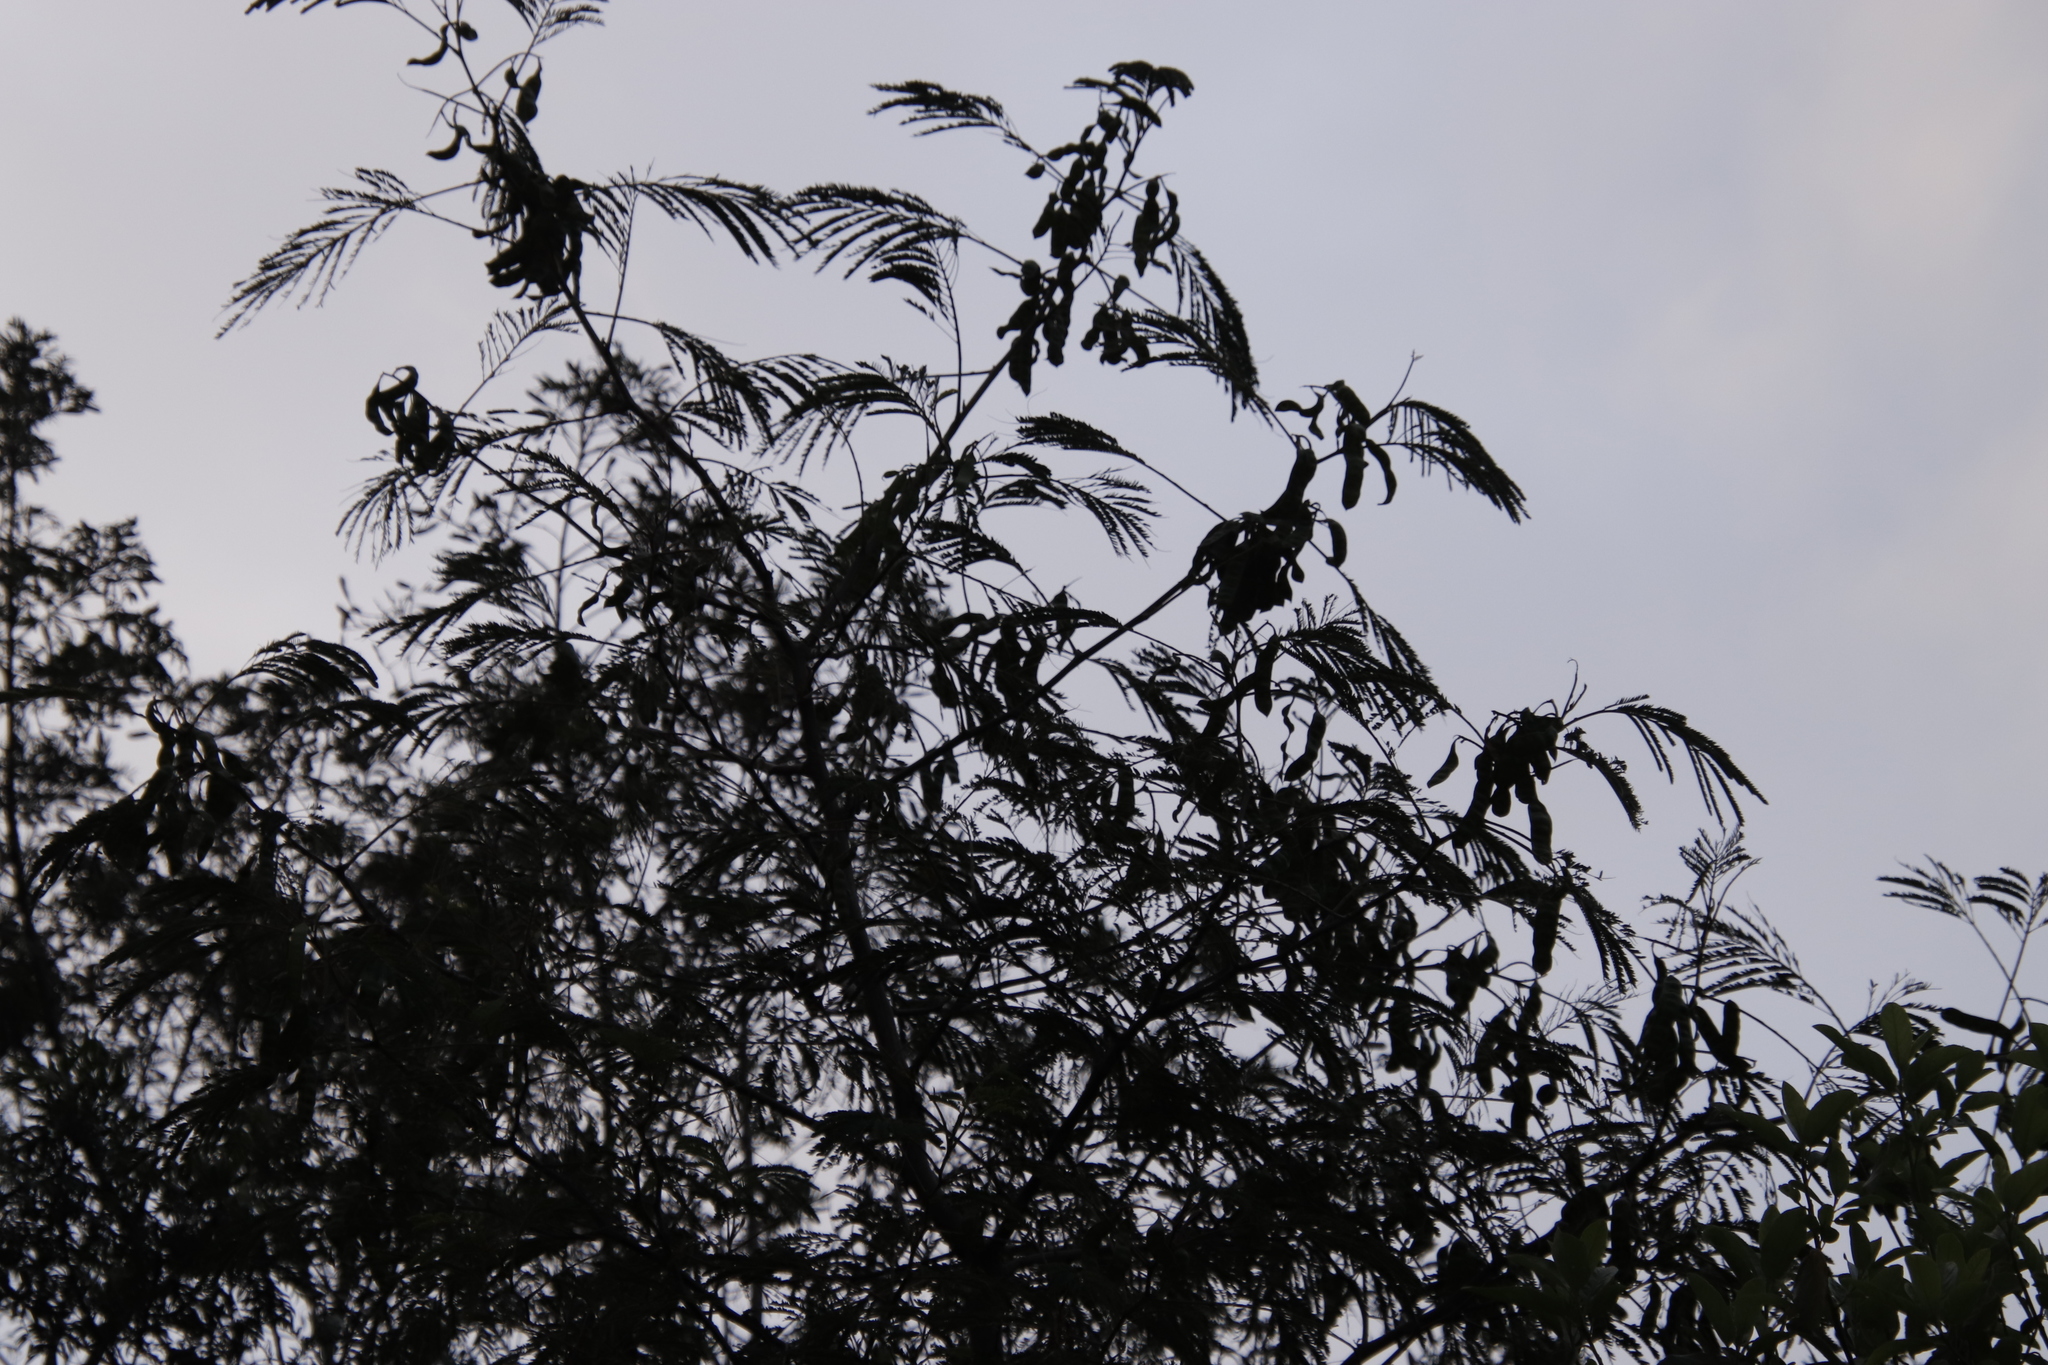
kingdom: Plantae
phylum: Tracheophyta
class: Magnoliopsida
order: Fabales
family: Fabaceae
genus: Paraserianthes
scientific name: Paraserianthes lophantha
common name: Plume albizia
